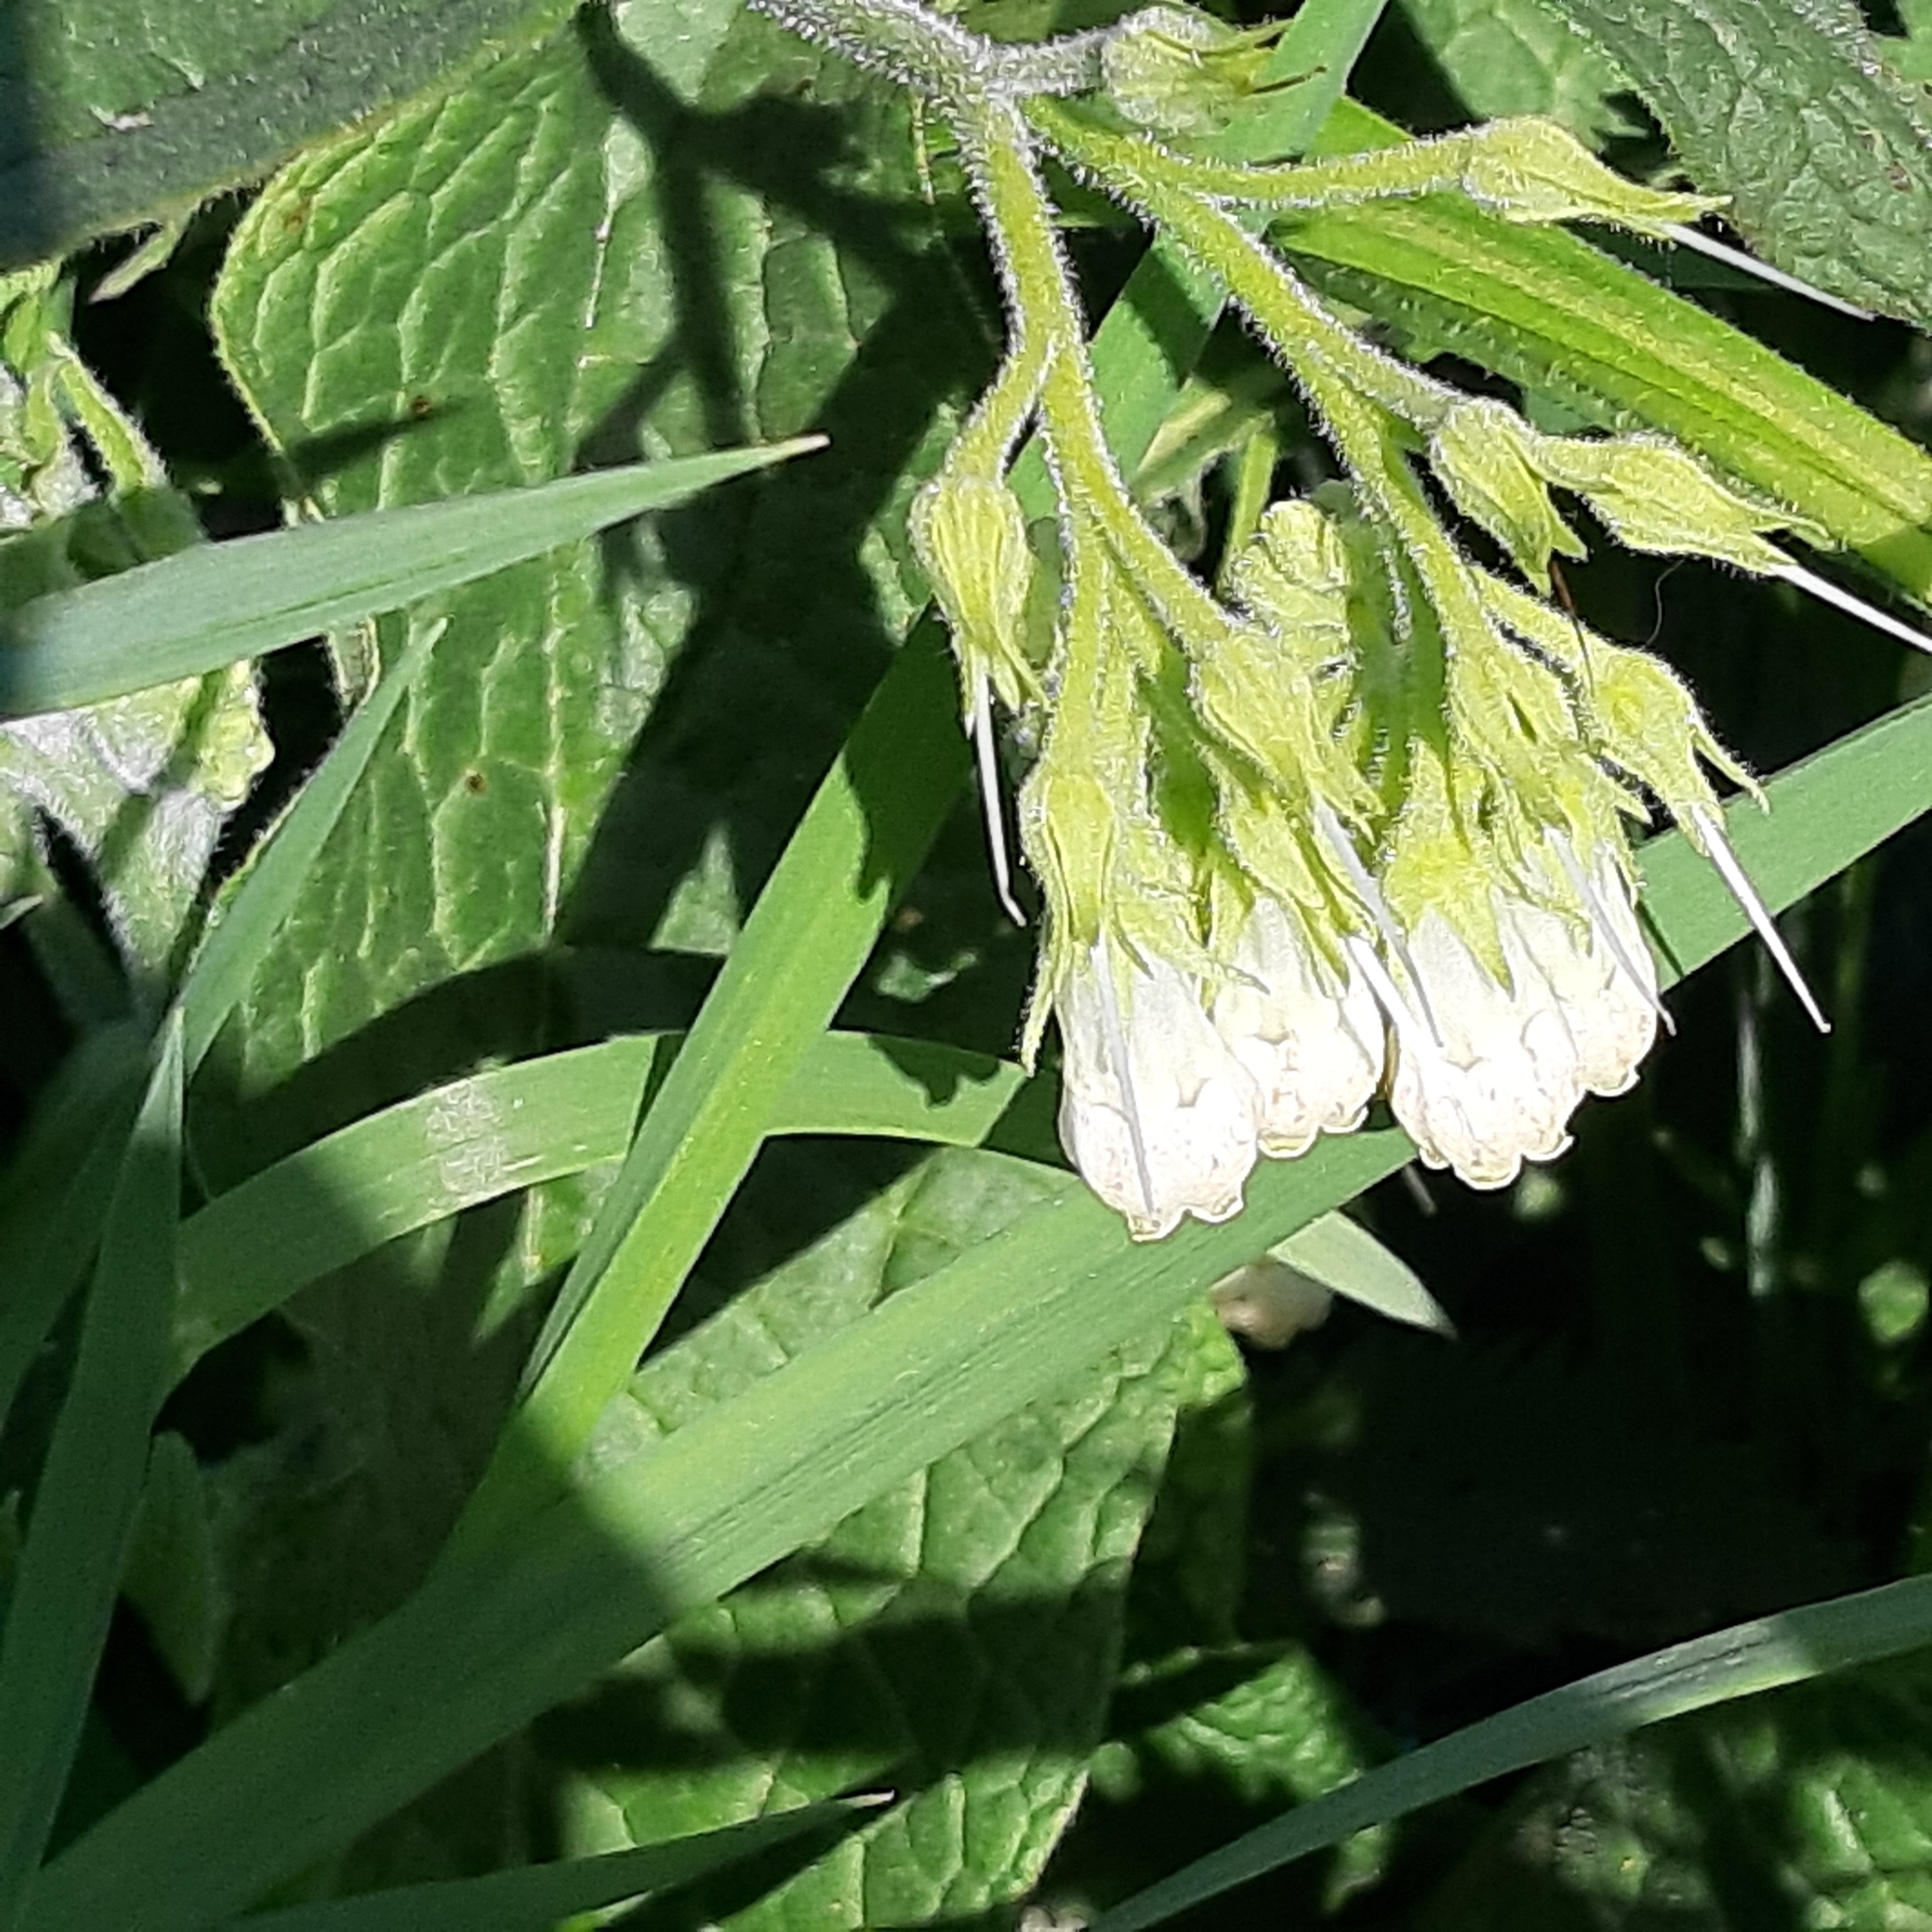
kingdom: Plantae
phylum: Tracheophyta
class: Magnoliopsida
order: Boraginales
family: Boraginaceae
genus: Symphytum
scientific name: Symphytum officinale
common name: Common comfrey
